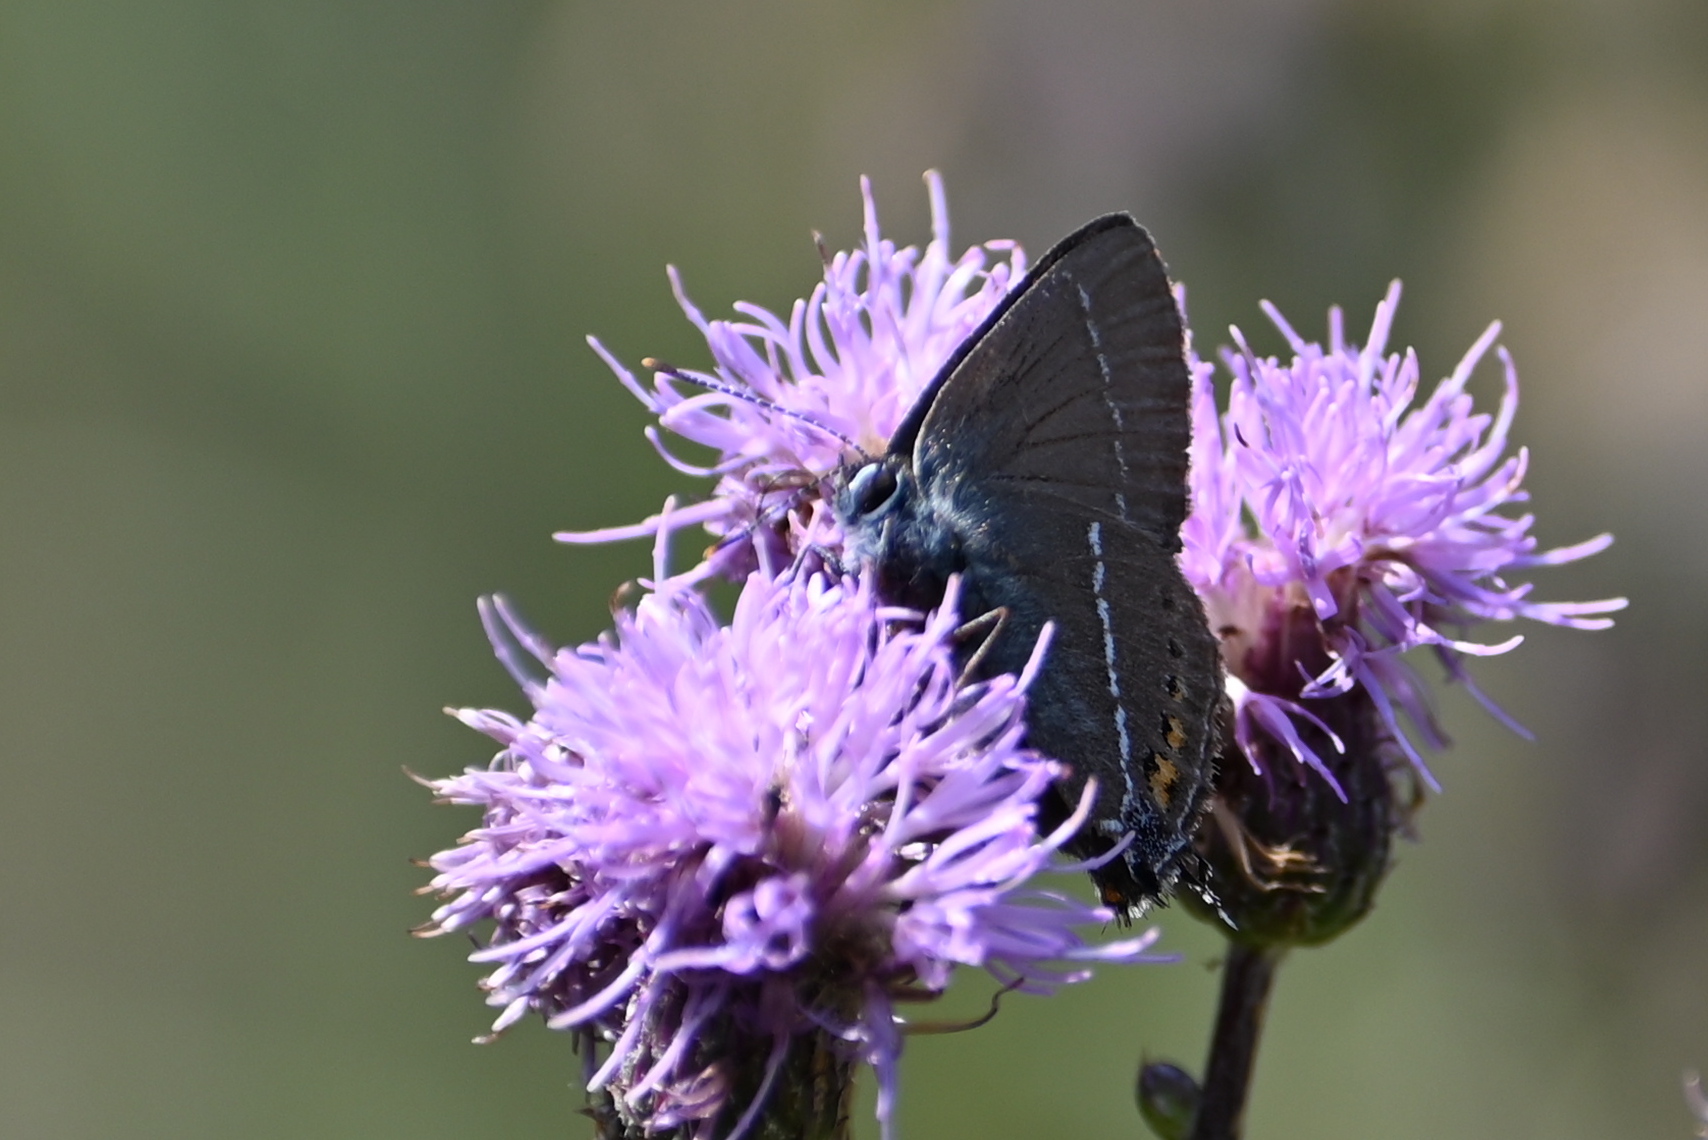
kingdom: Animalia
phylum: Arthropoda
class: Insecta
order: Lepidoptera
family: Lycaenidae
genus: Tuttiola
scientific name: Tuttiola spini
